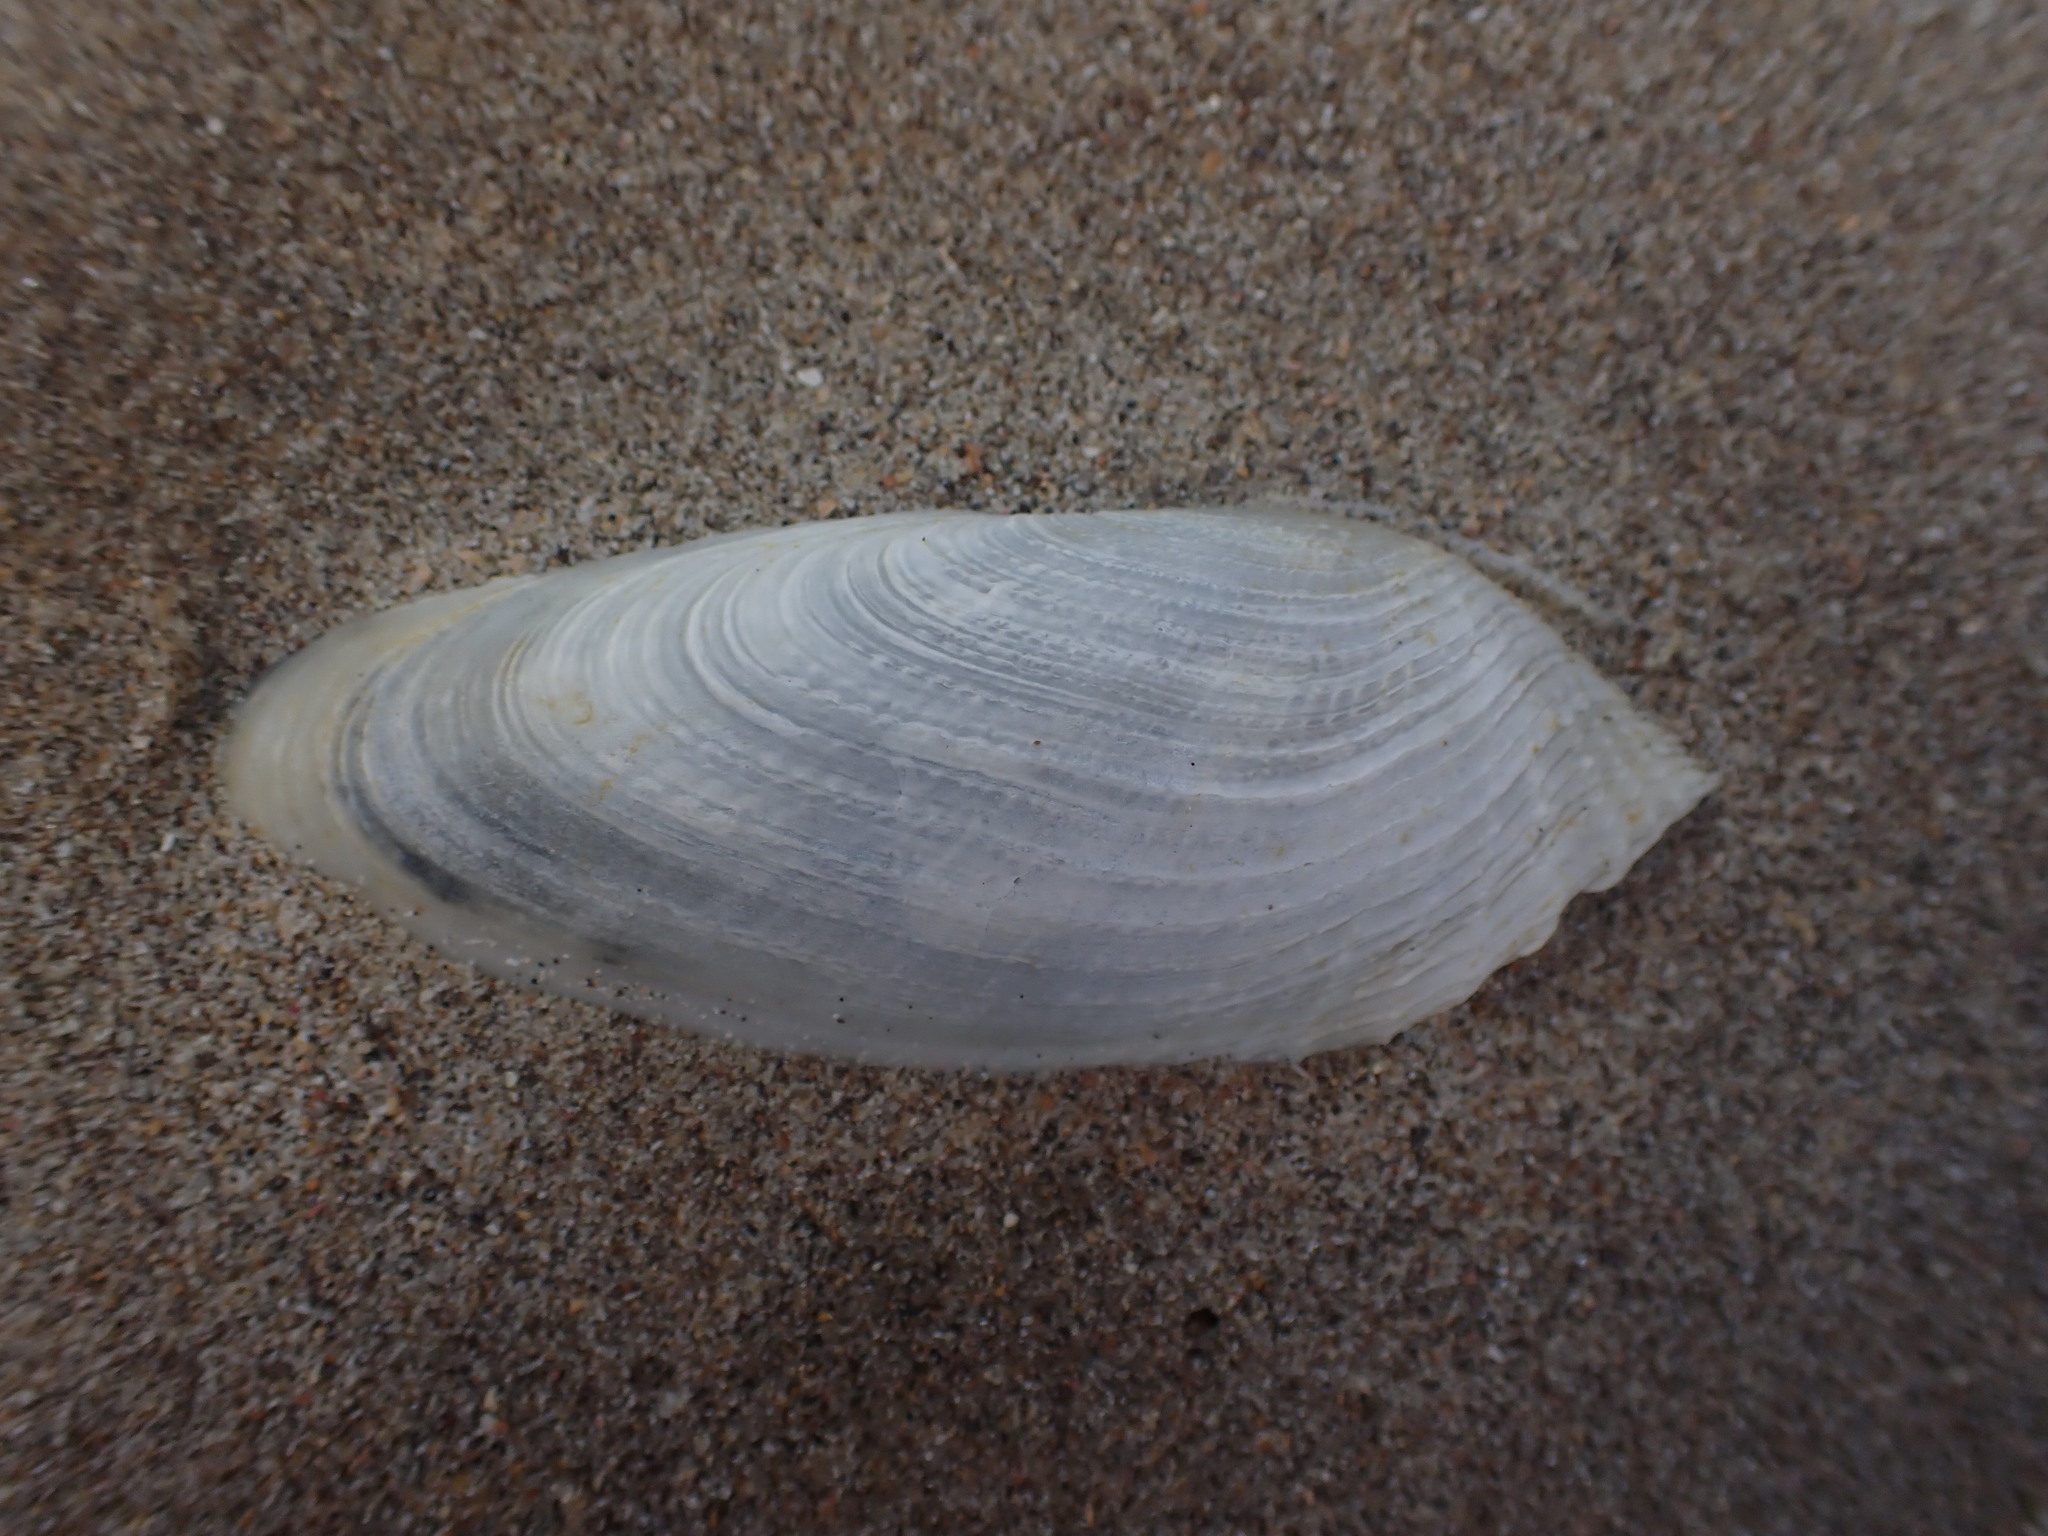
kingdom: Animalia
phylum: Mollusca
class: Bivalvia
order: Myida
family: Pholadidae
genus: Barnea
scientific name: Barnea similis
